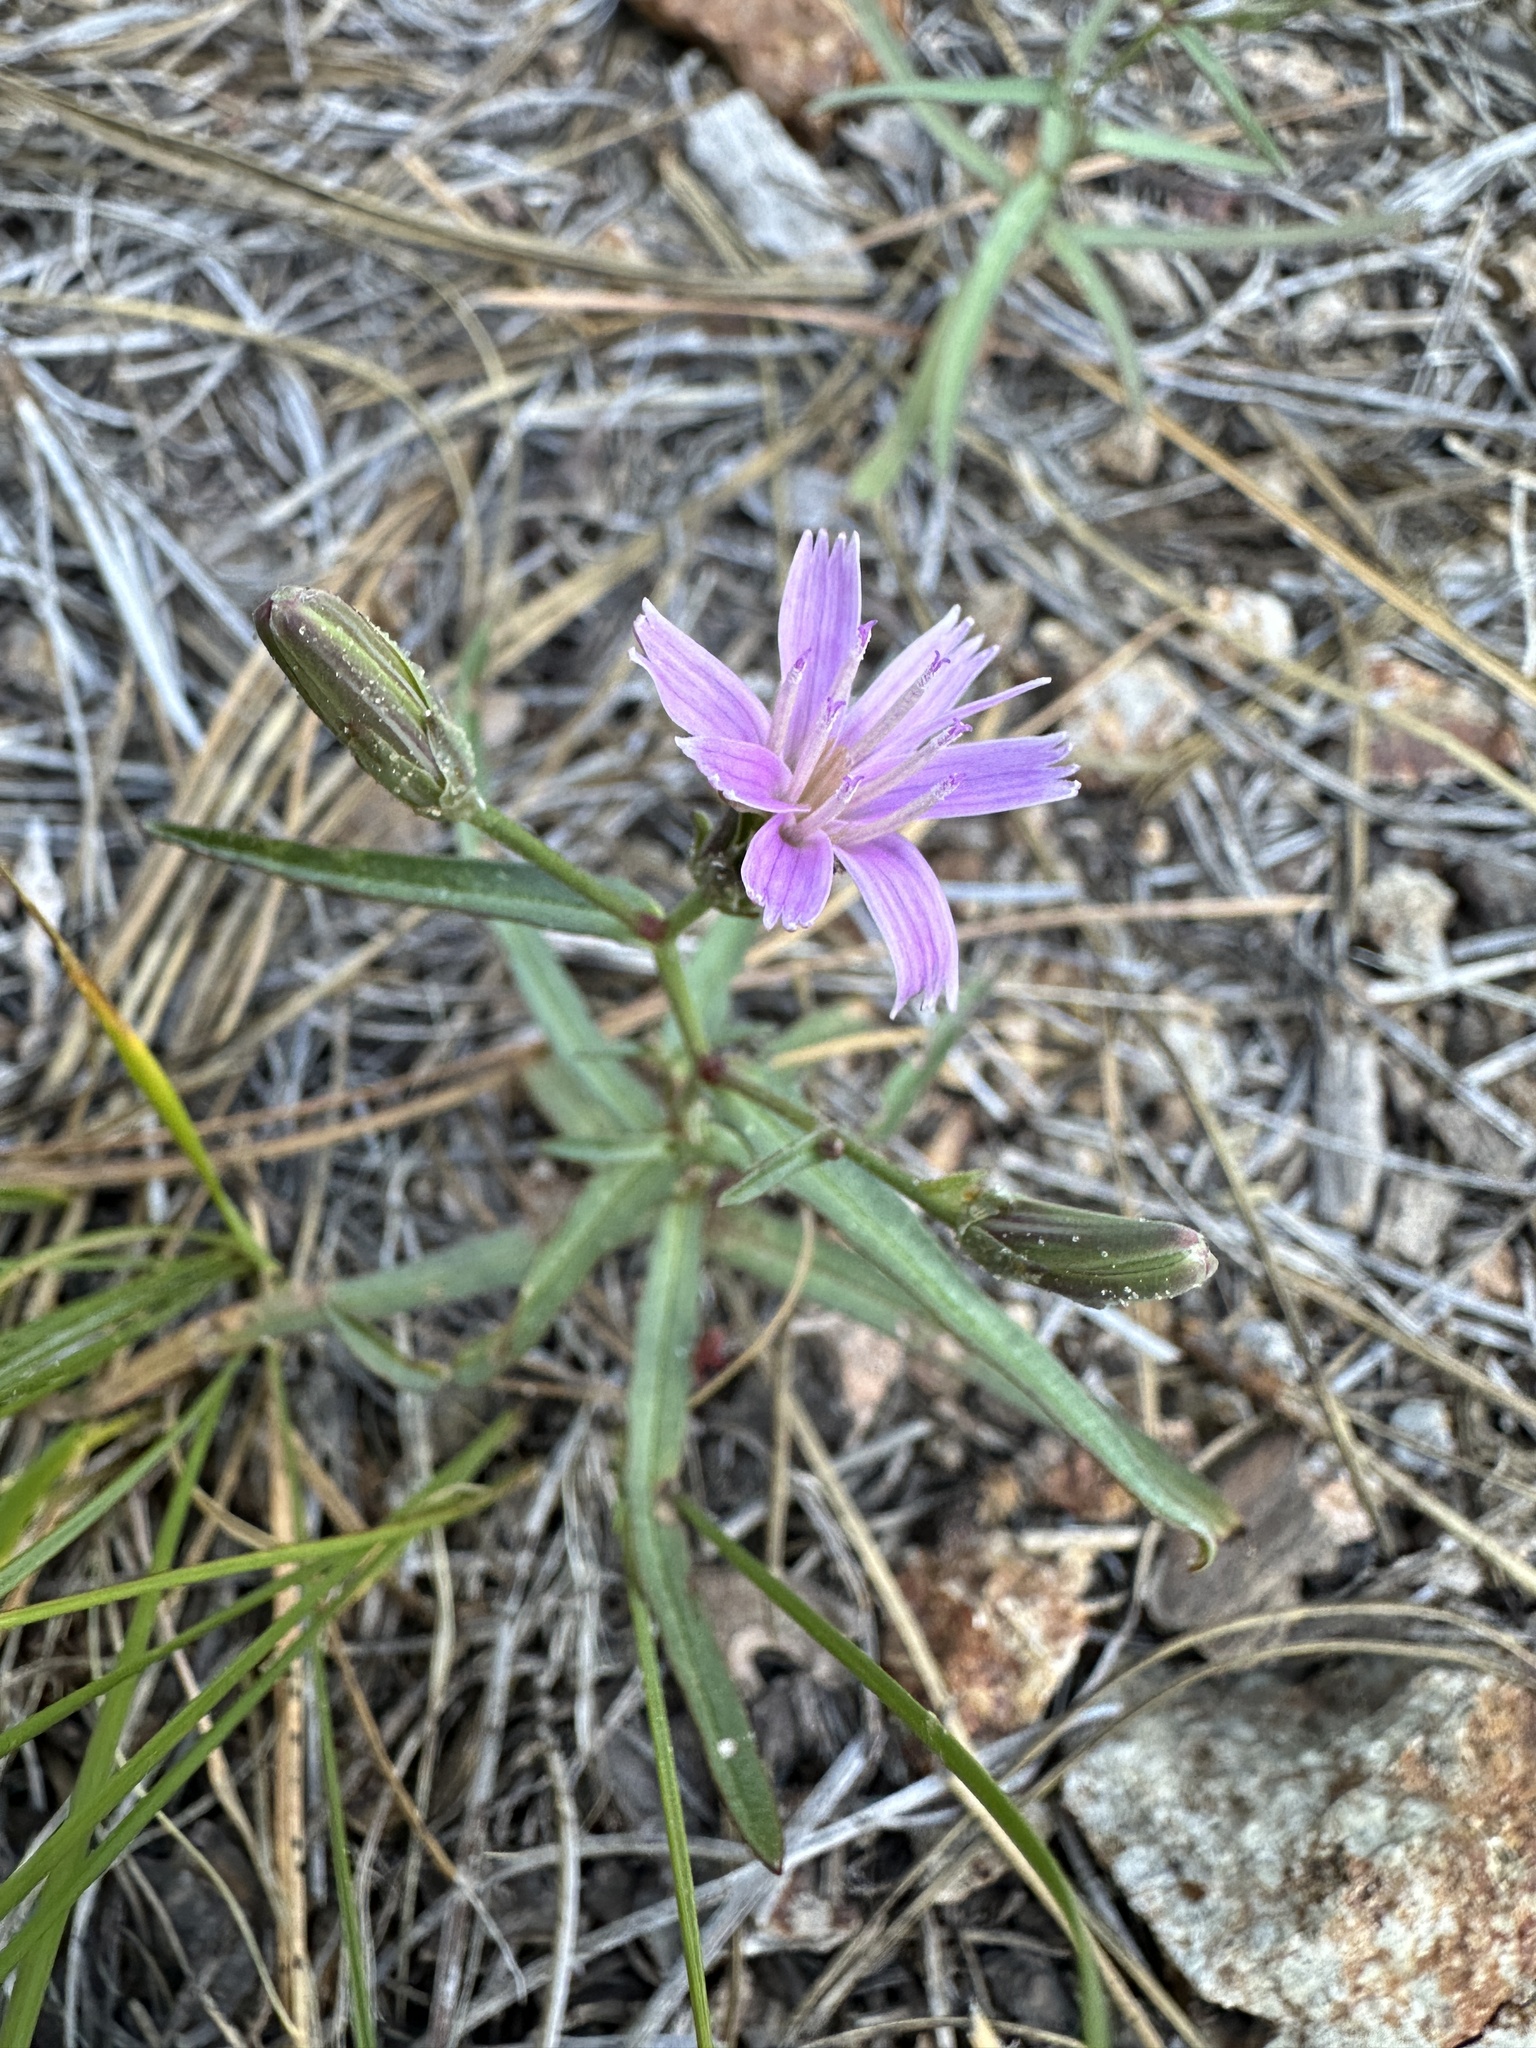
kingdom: Plantae
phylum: Tracheophyta
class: Magnoliopsida
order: Asterales
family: Asteraceae
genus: Stephanomeria
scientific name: Stephanomeria lactucina
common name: Large-flowered wirelettuce
